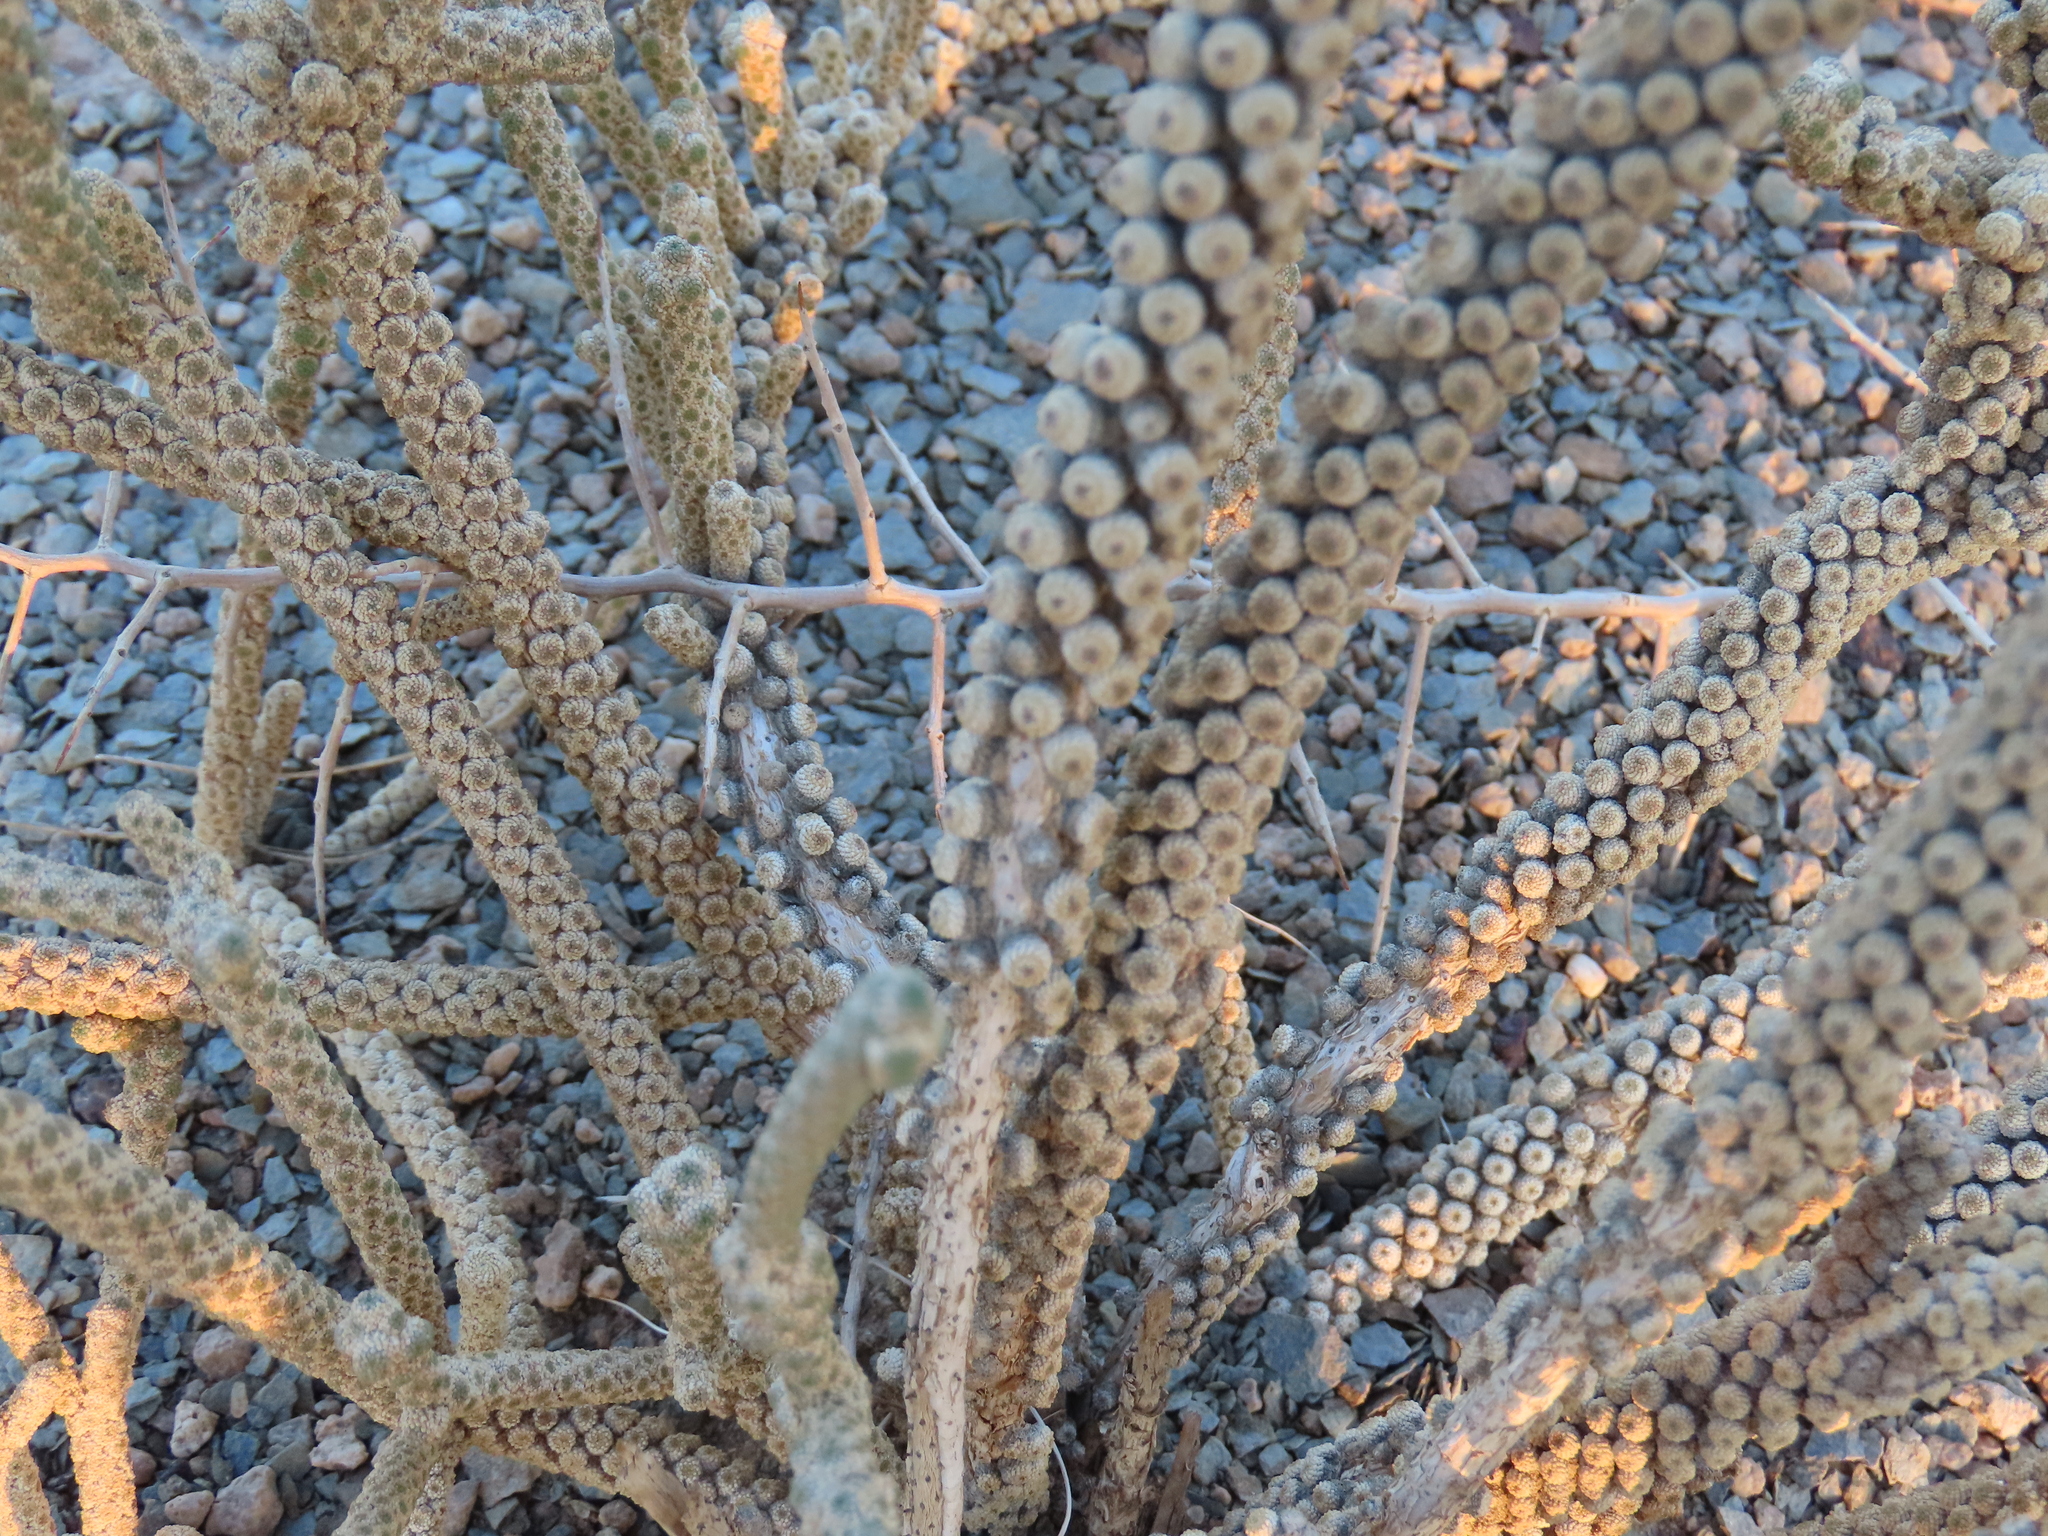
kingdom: Plantae
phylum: Tracheophyta
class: Magnoliopsida
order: Brassicales
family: Tiganophytaceae
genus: Tiganophyton
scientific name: Tiganophyton karasense
